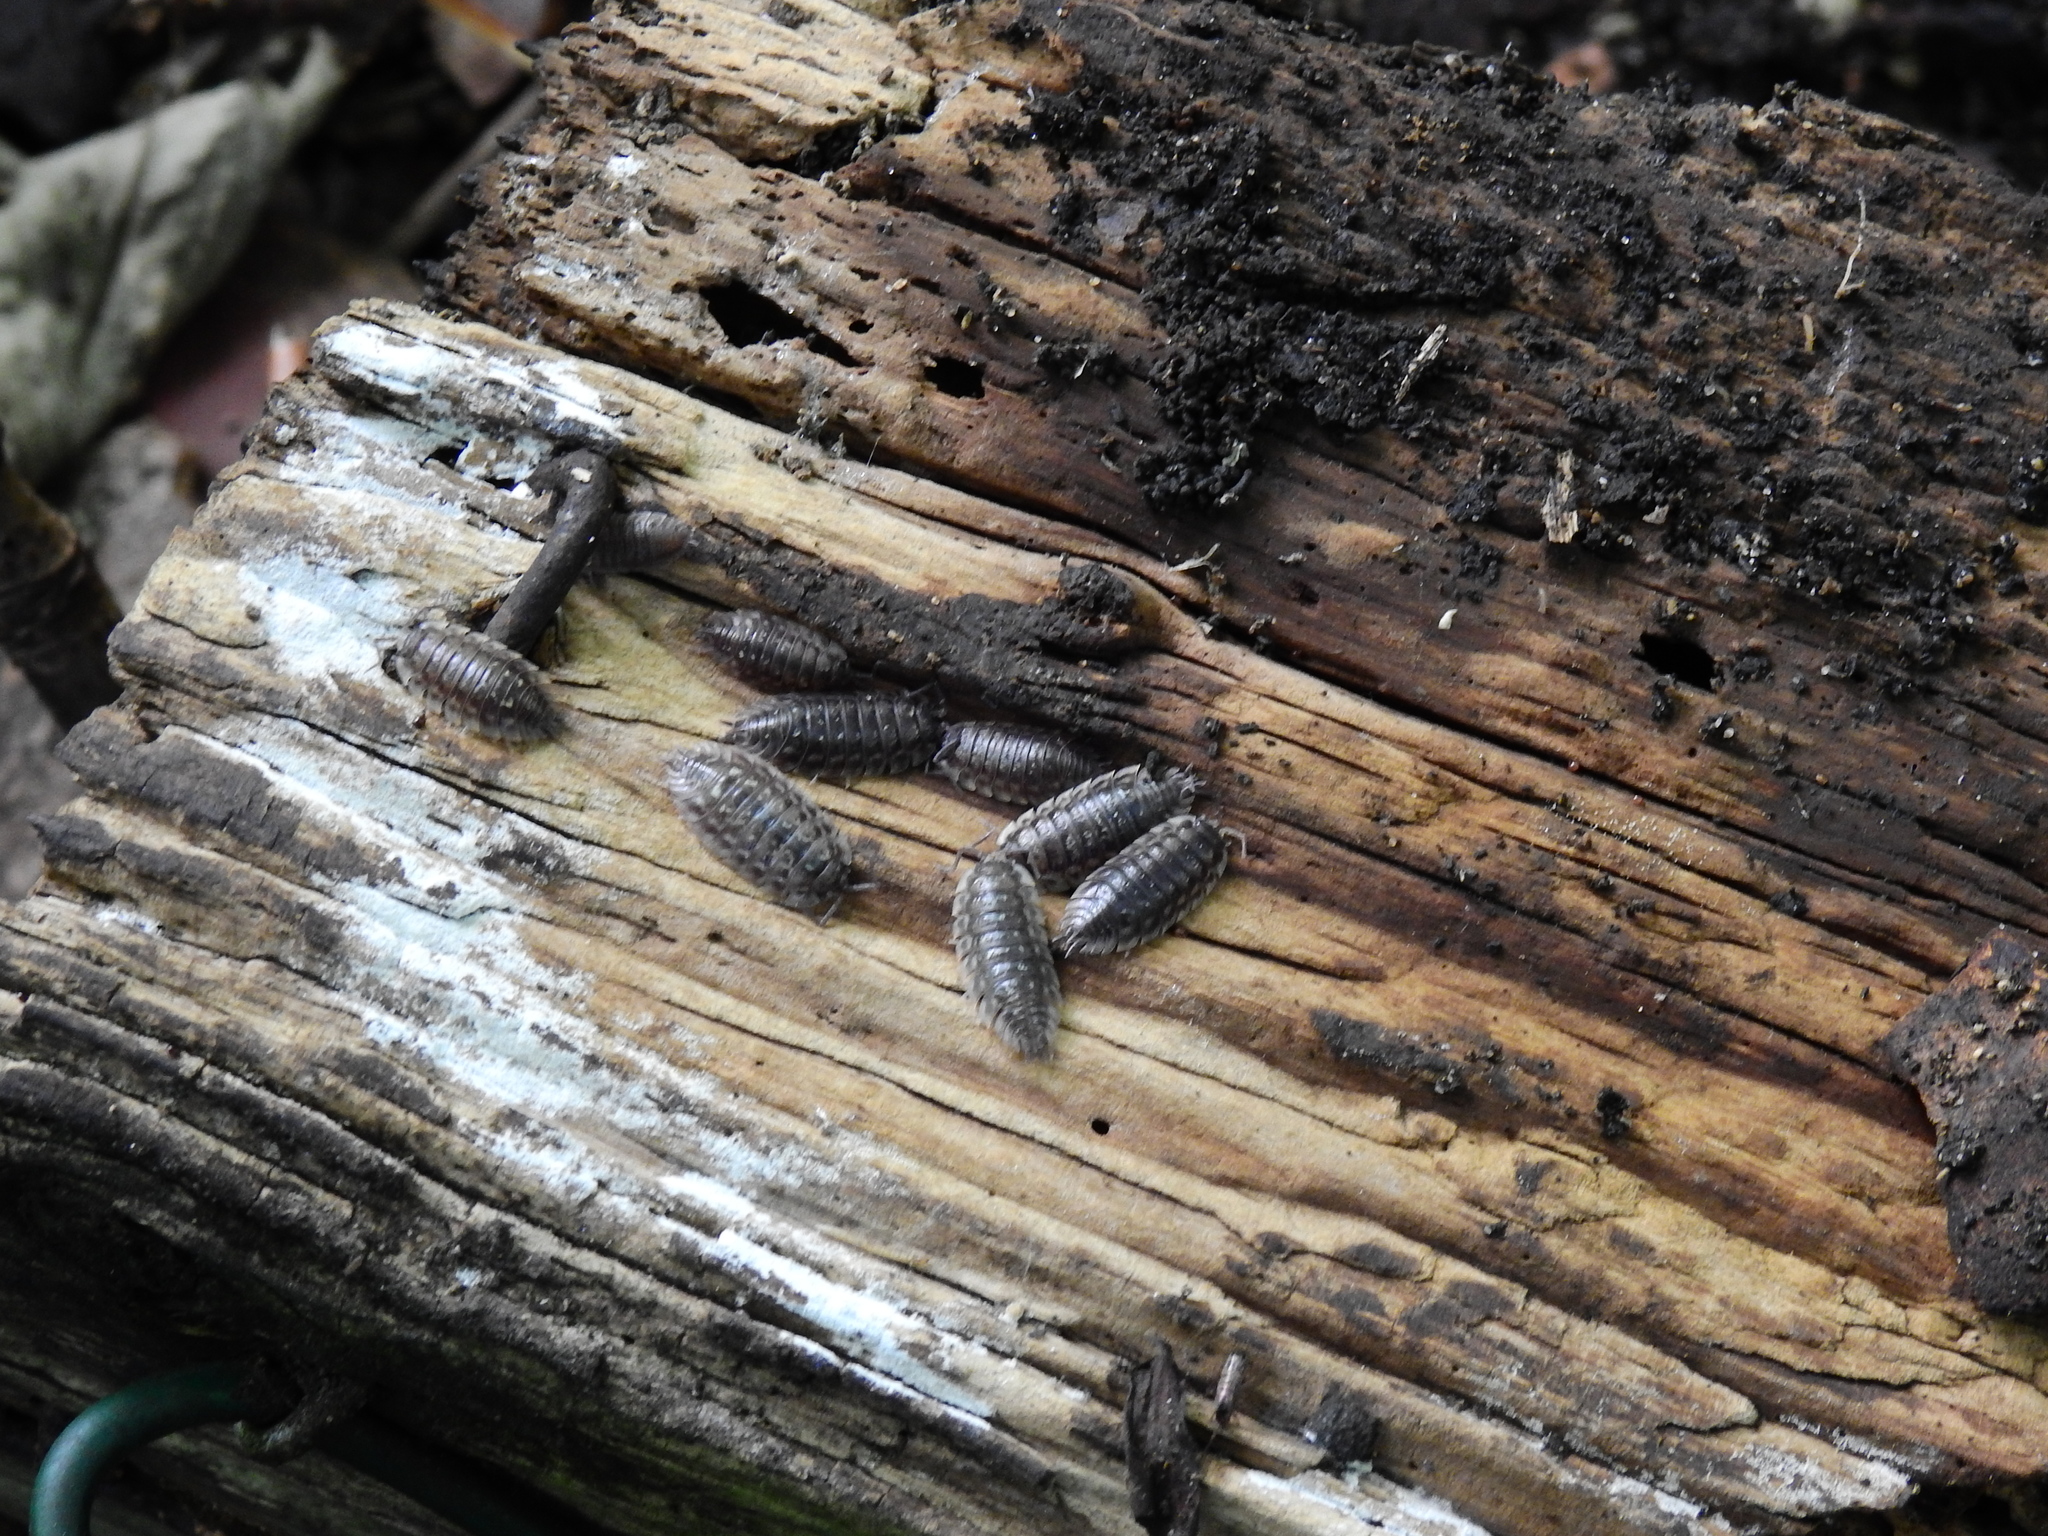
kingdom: Animalia
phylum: Arthropoda
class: Malacostraca
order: Isopoda
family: Oniscidae
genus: Oniscus
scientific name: Oniscus asellus
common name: Common shiny woodlouse
